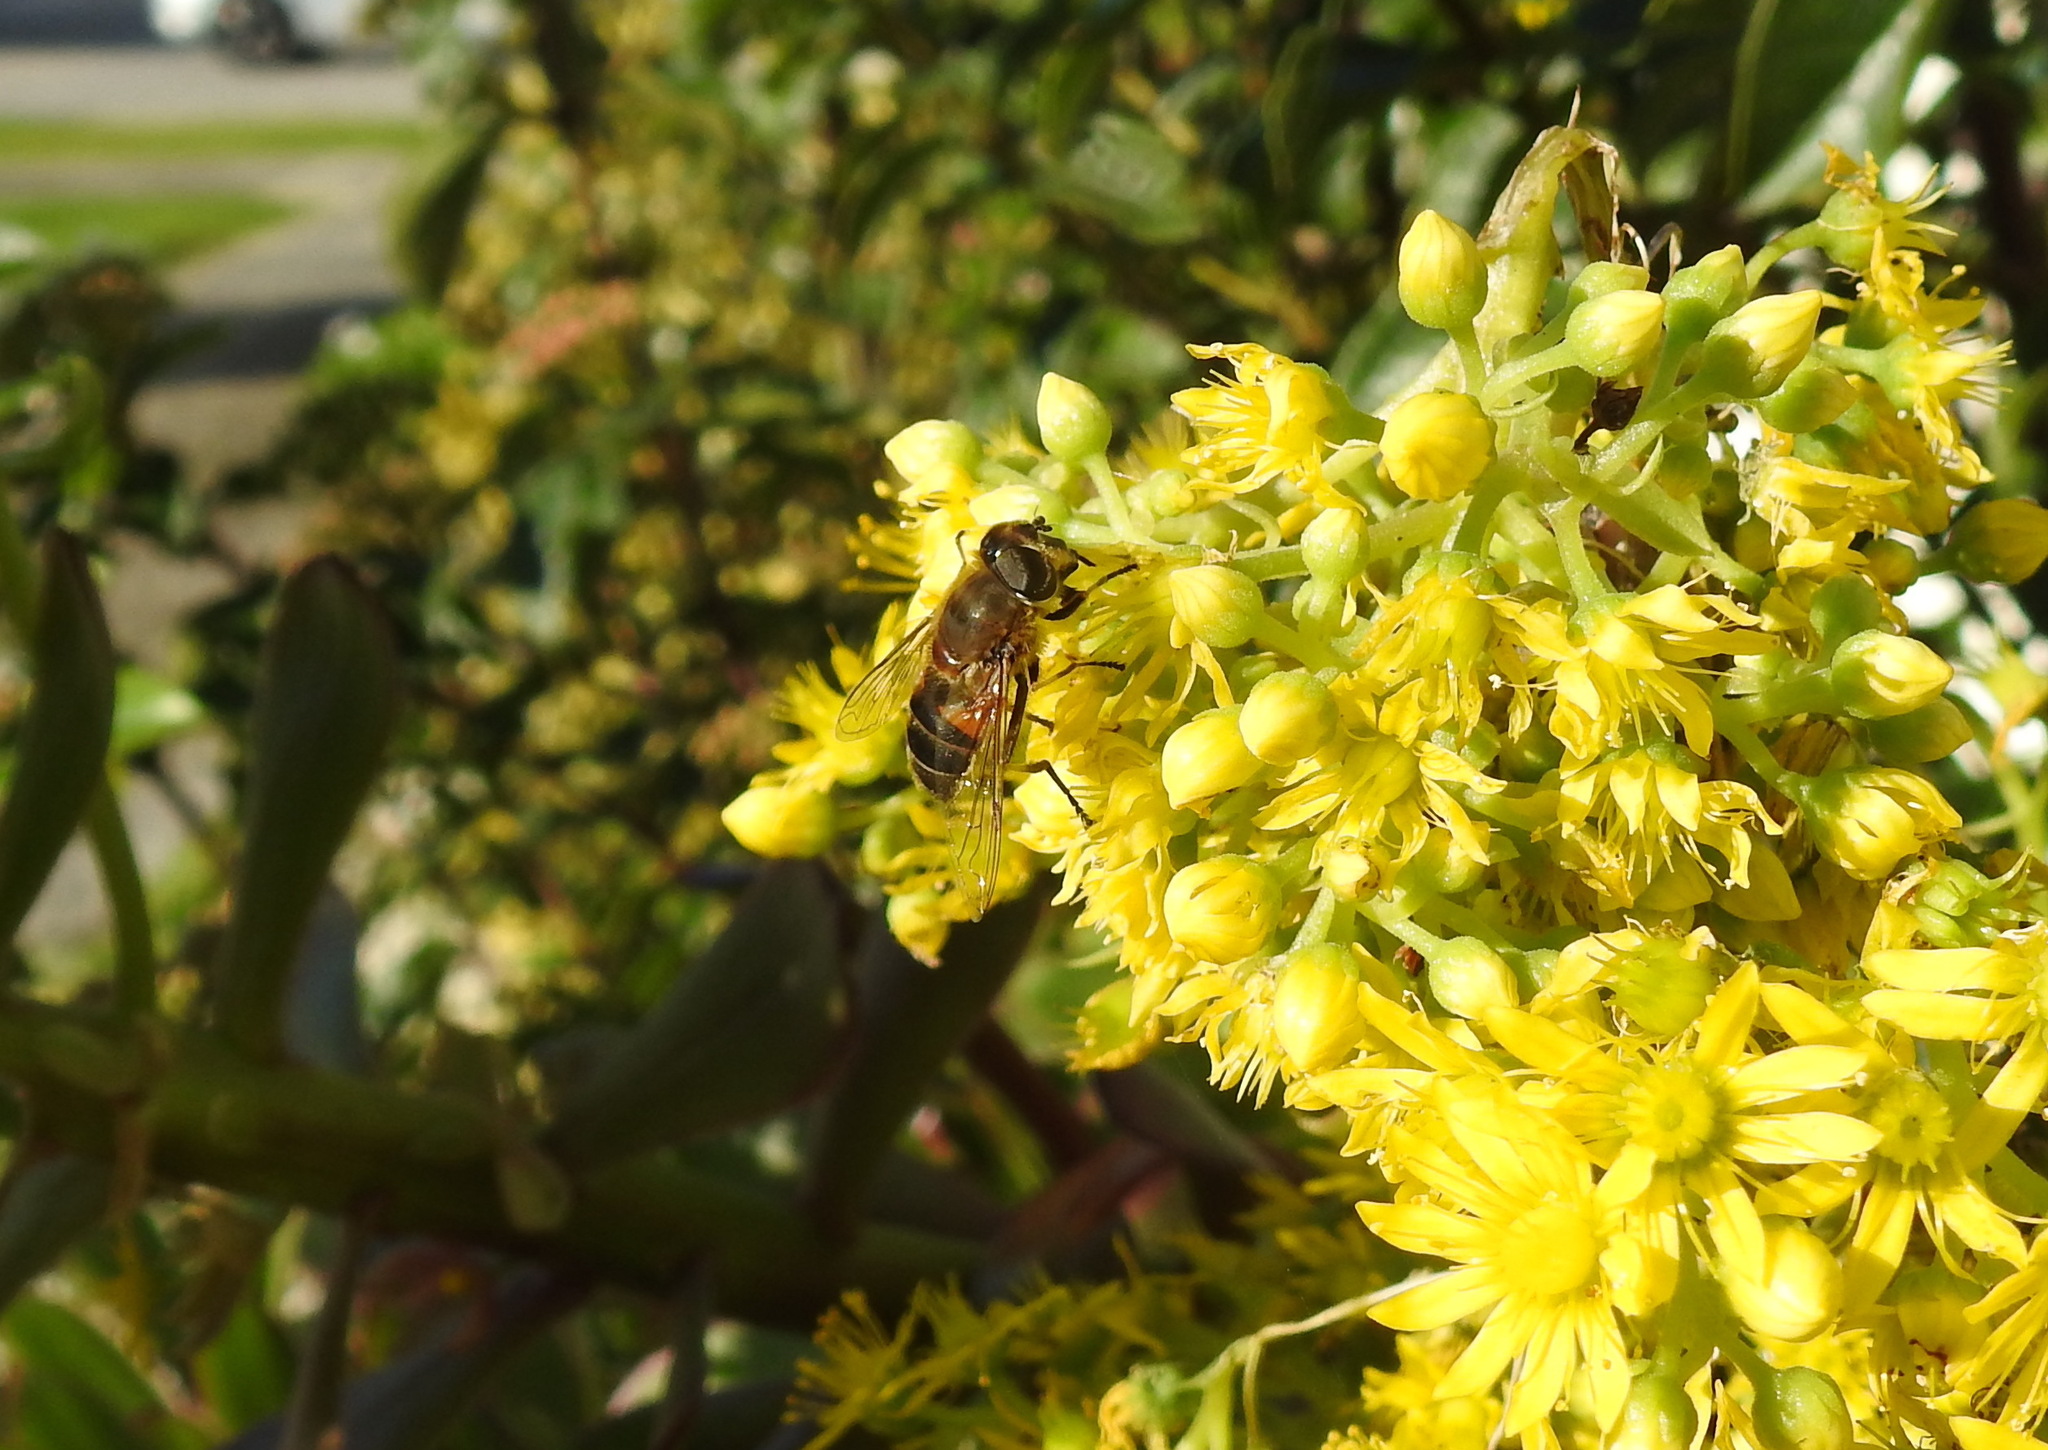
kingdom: Animalia
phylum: Arthropoda
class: Insecta
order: Diptera
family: Syrphidae
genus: Eristalis
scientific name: Eristalis pertinax
